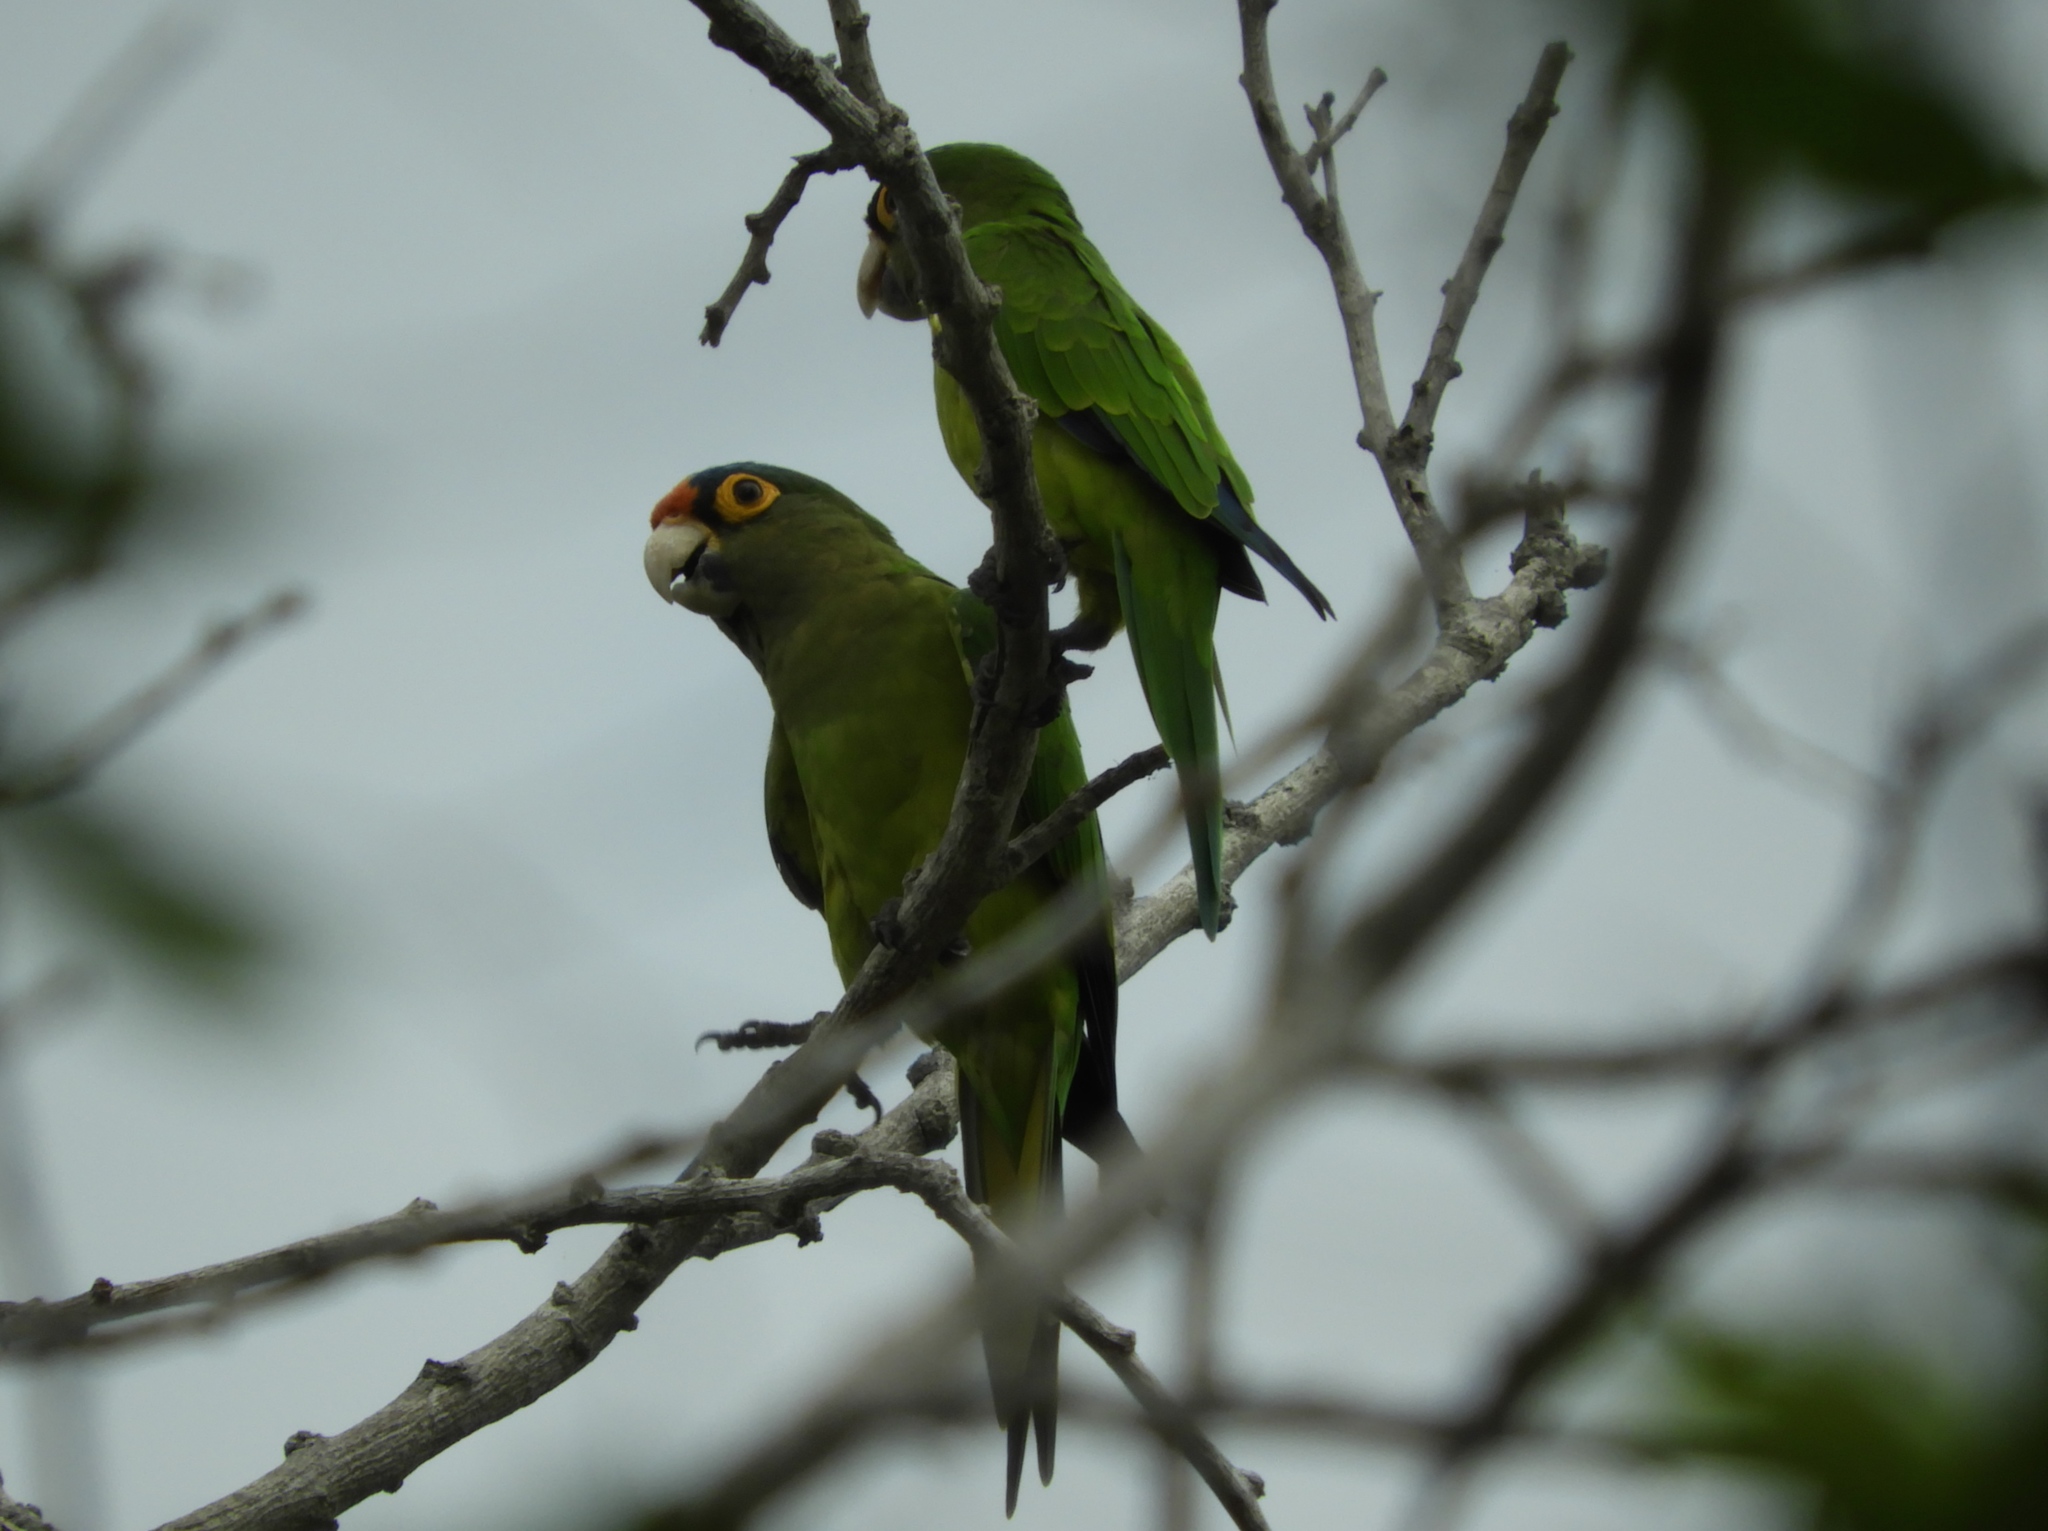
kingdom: Animalia
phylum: Chordata
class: Aves
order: Psittaciformes
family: Psittacidae
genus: Aratinga
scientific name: Aratinga canicularis
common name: Orange-fronted parakeet
